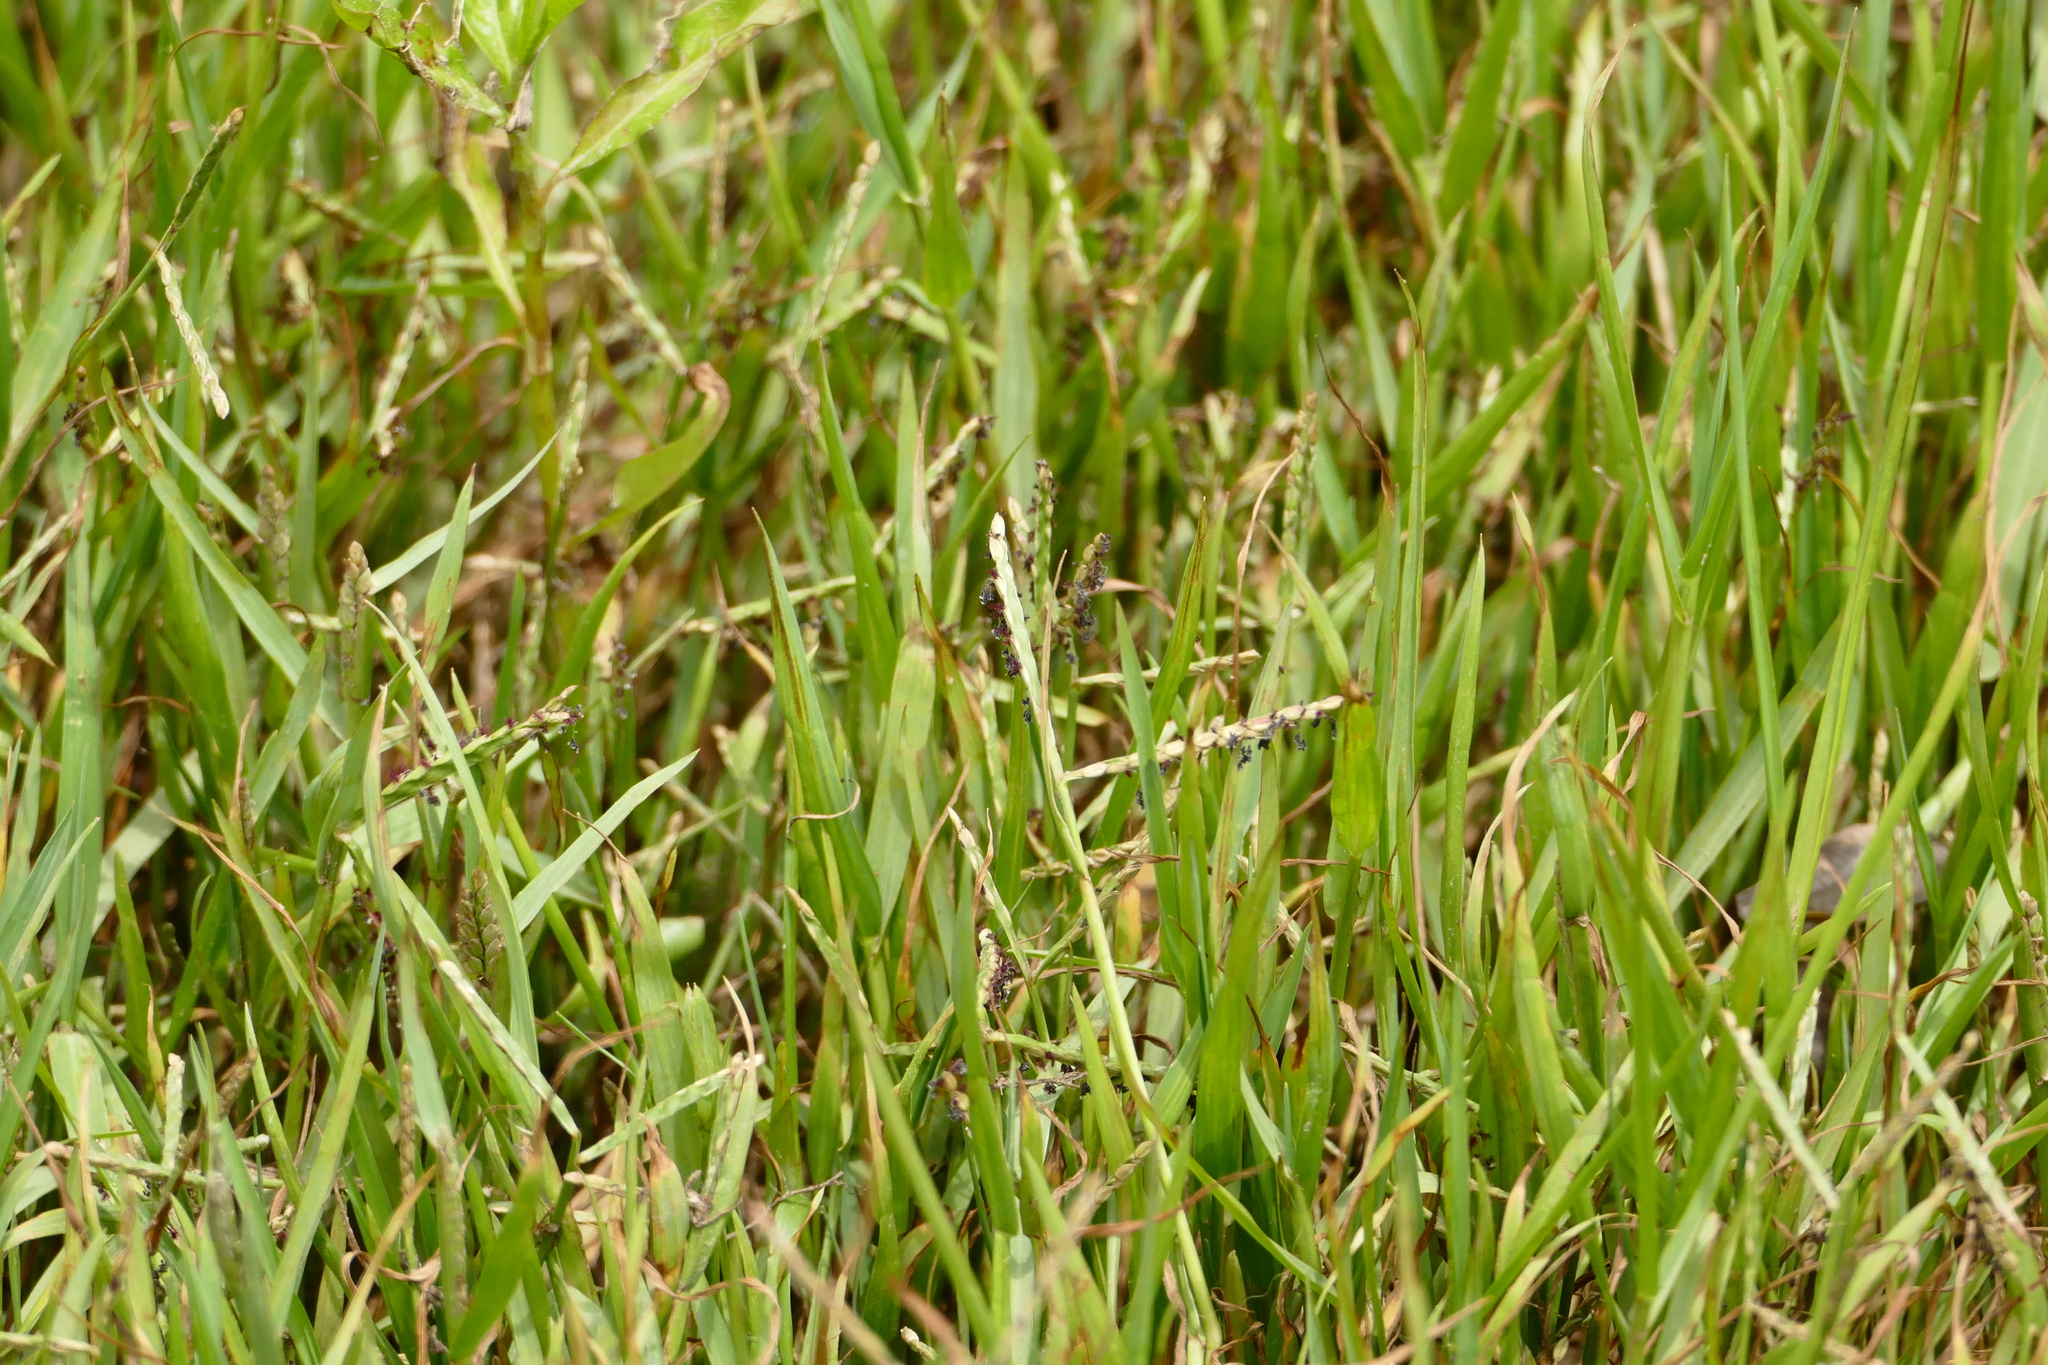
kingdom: Plantae
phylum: Tracheophyta
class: Liliopsida
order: Poales
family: Poaceae
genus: Paspalum
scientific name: Paspalum distichum
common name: Knotgrass
